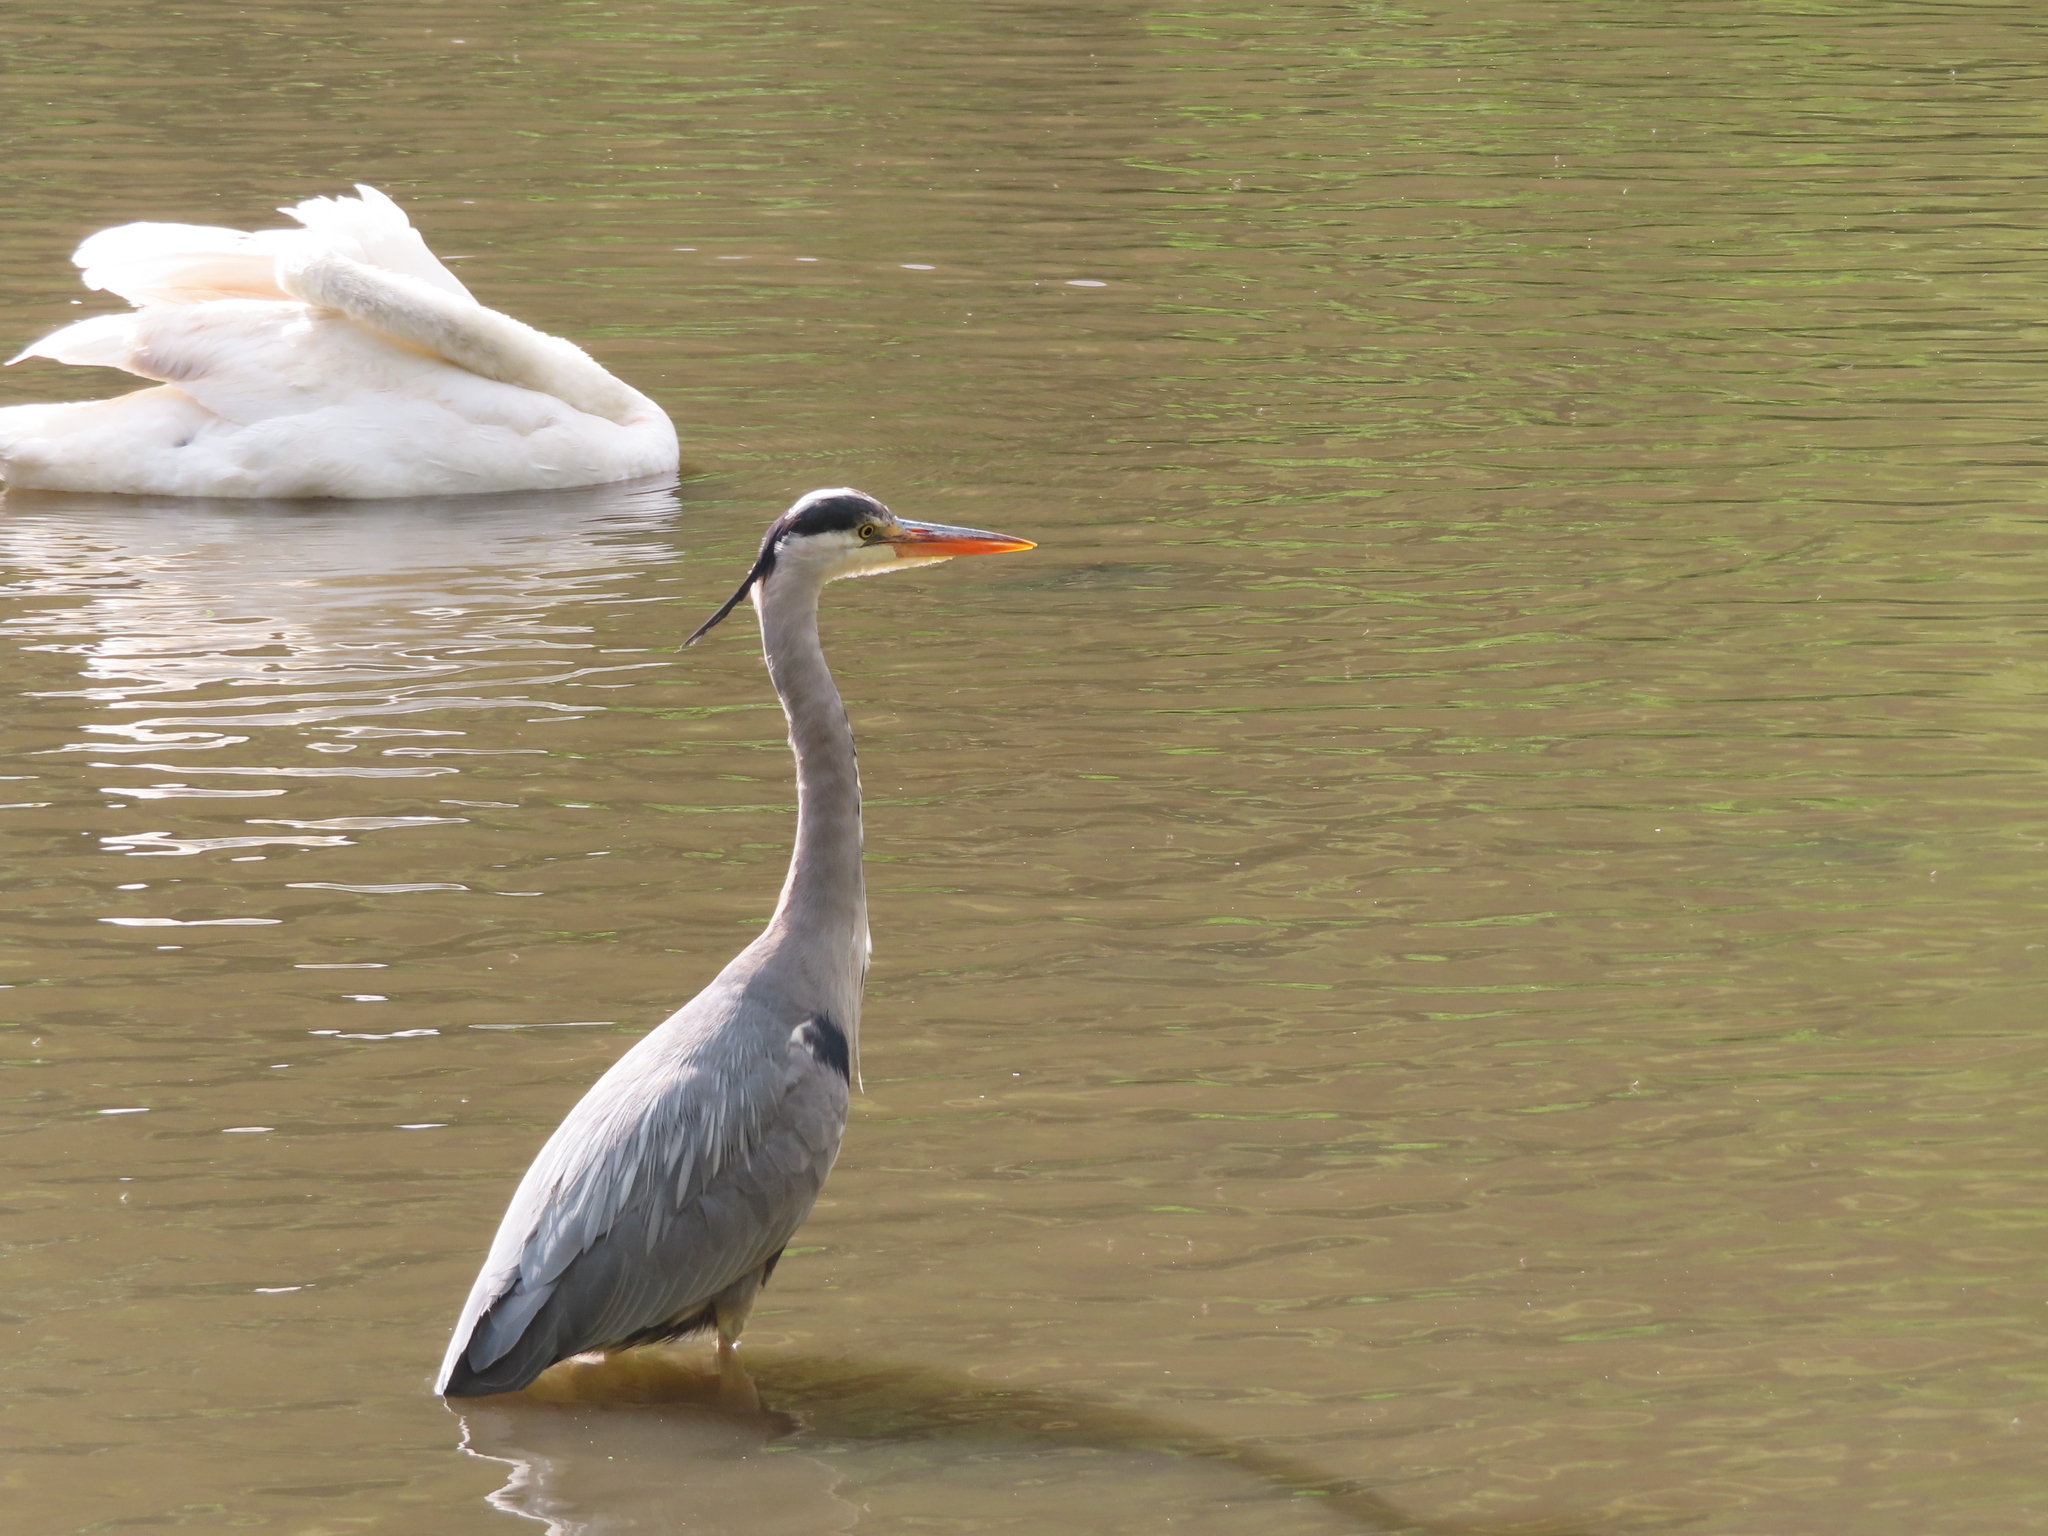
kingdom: Animalia
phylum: Chordata
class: Aves
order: Pelecaniformes
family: Ardeidae
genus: Ardea
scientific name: Ardea cinerea
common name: Grey heron
